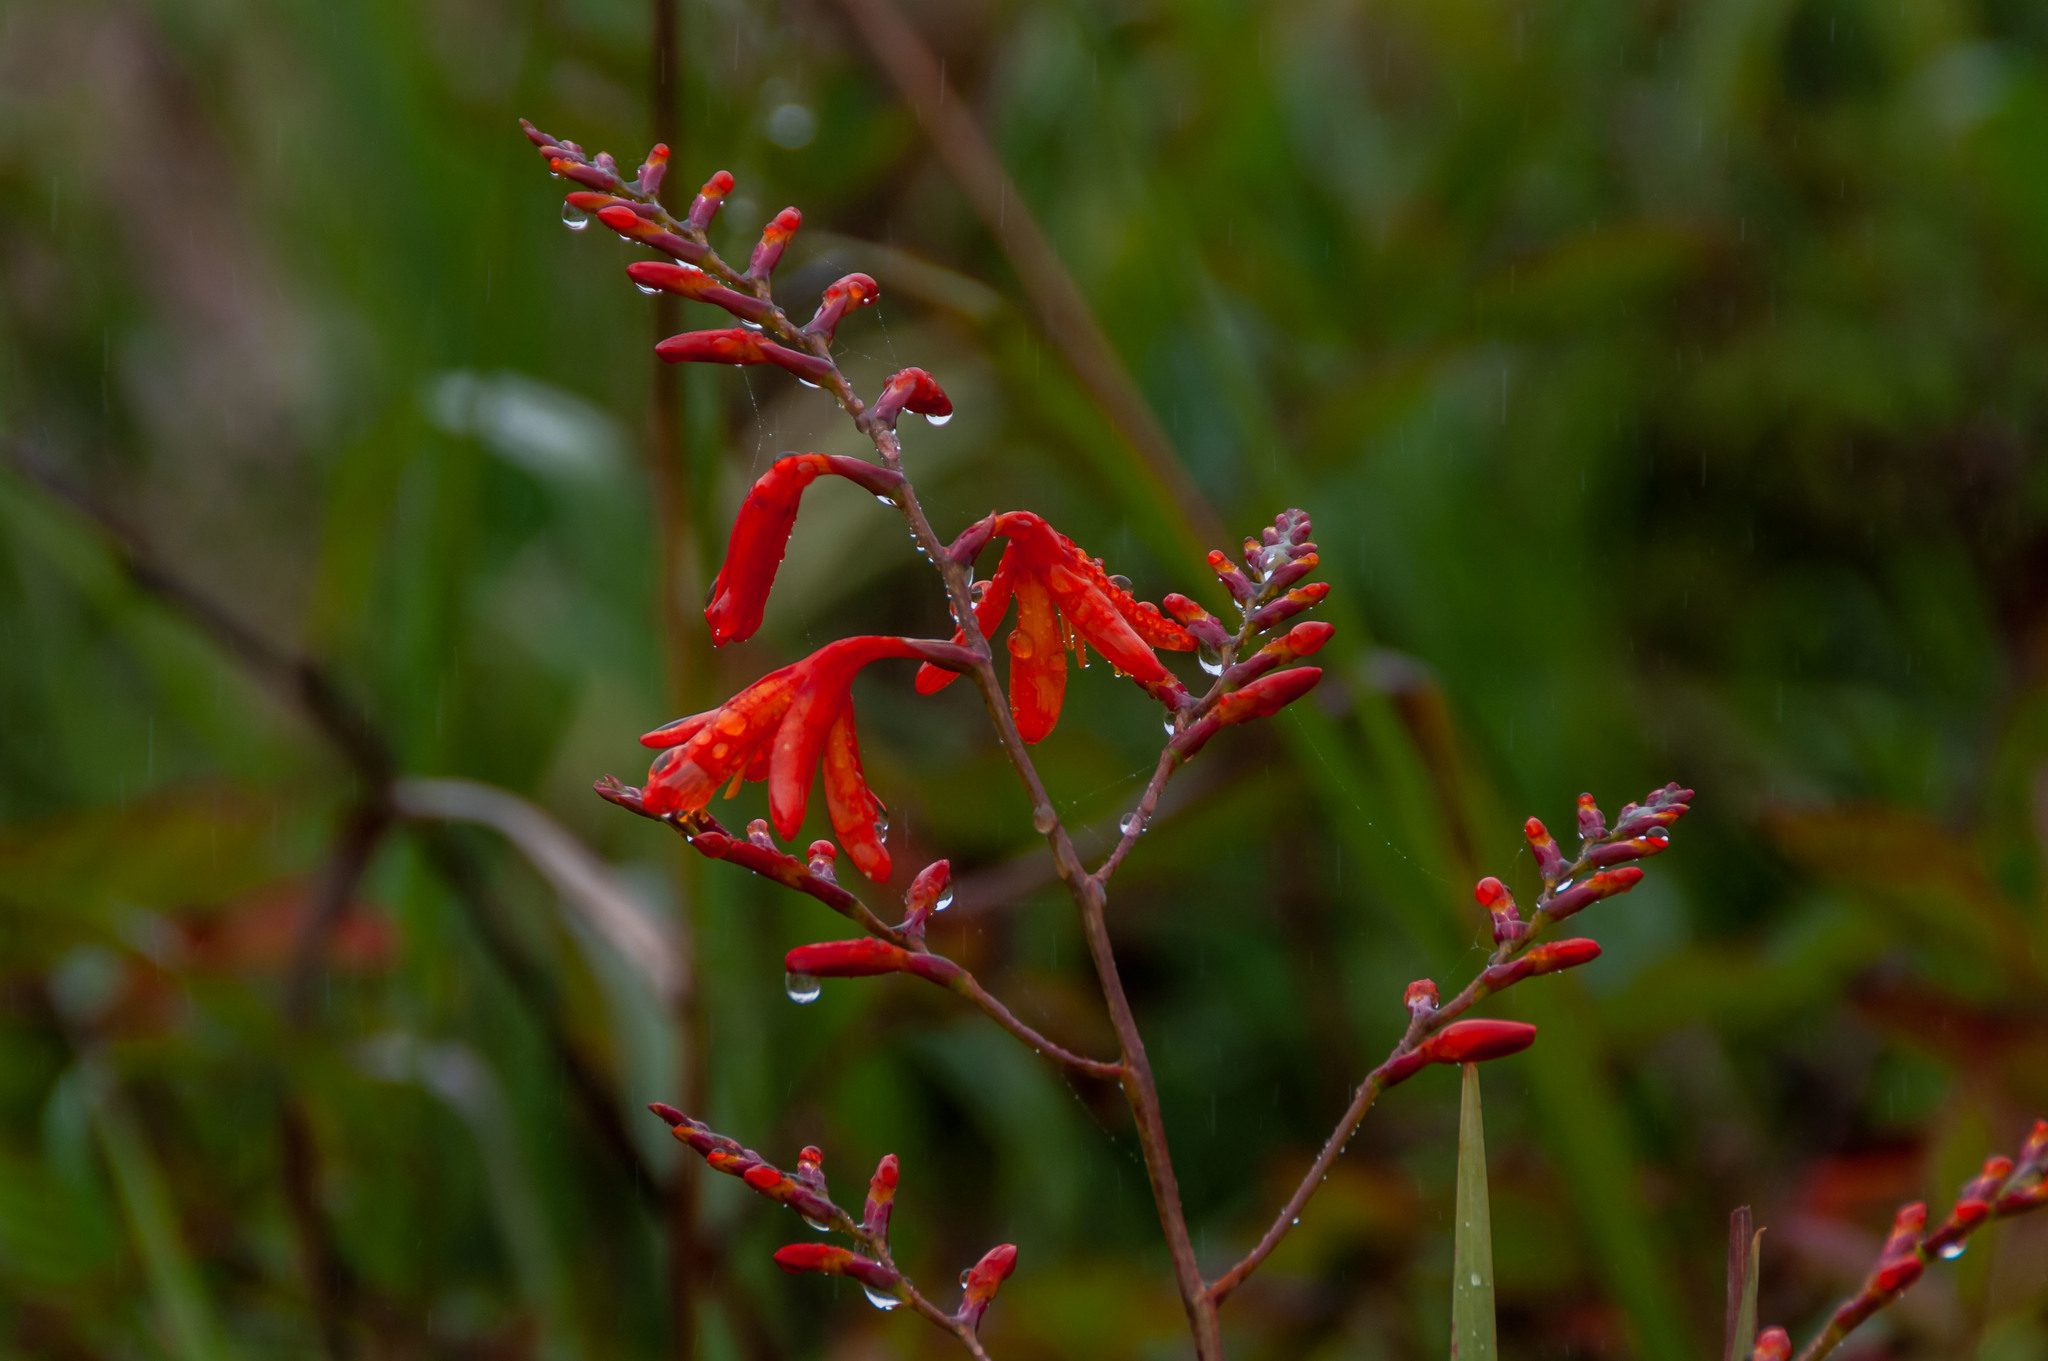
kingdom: Plantae
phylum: Tracheophyta
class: Liliopsida
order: Asparagales
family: Iridaceae
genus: Crocosmia
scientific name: Crocosmia crocosmiiflora
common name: Montbretia
